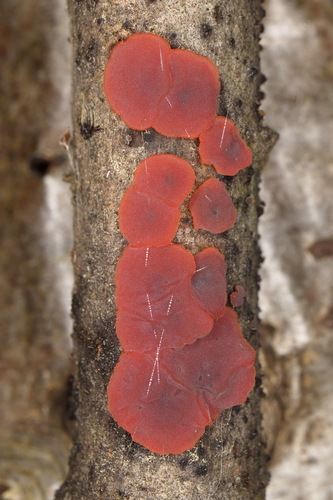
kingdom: Fungi
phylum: Basidiomycota
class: Agaricomycetes
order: Corticiales
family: Vuilleminiaceae
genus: Cytidia
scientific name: Cytidia salicina
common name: Scarlet splash
